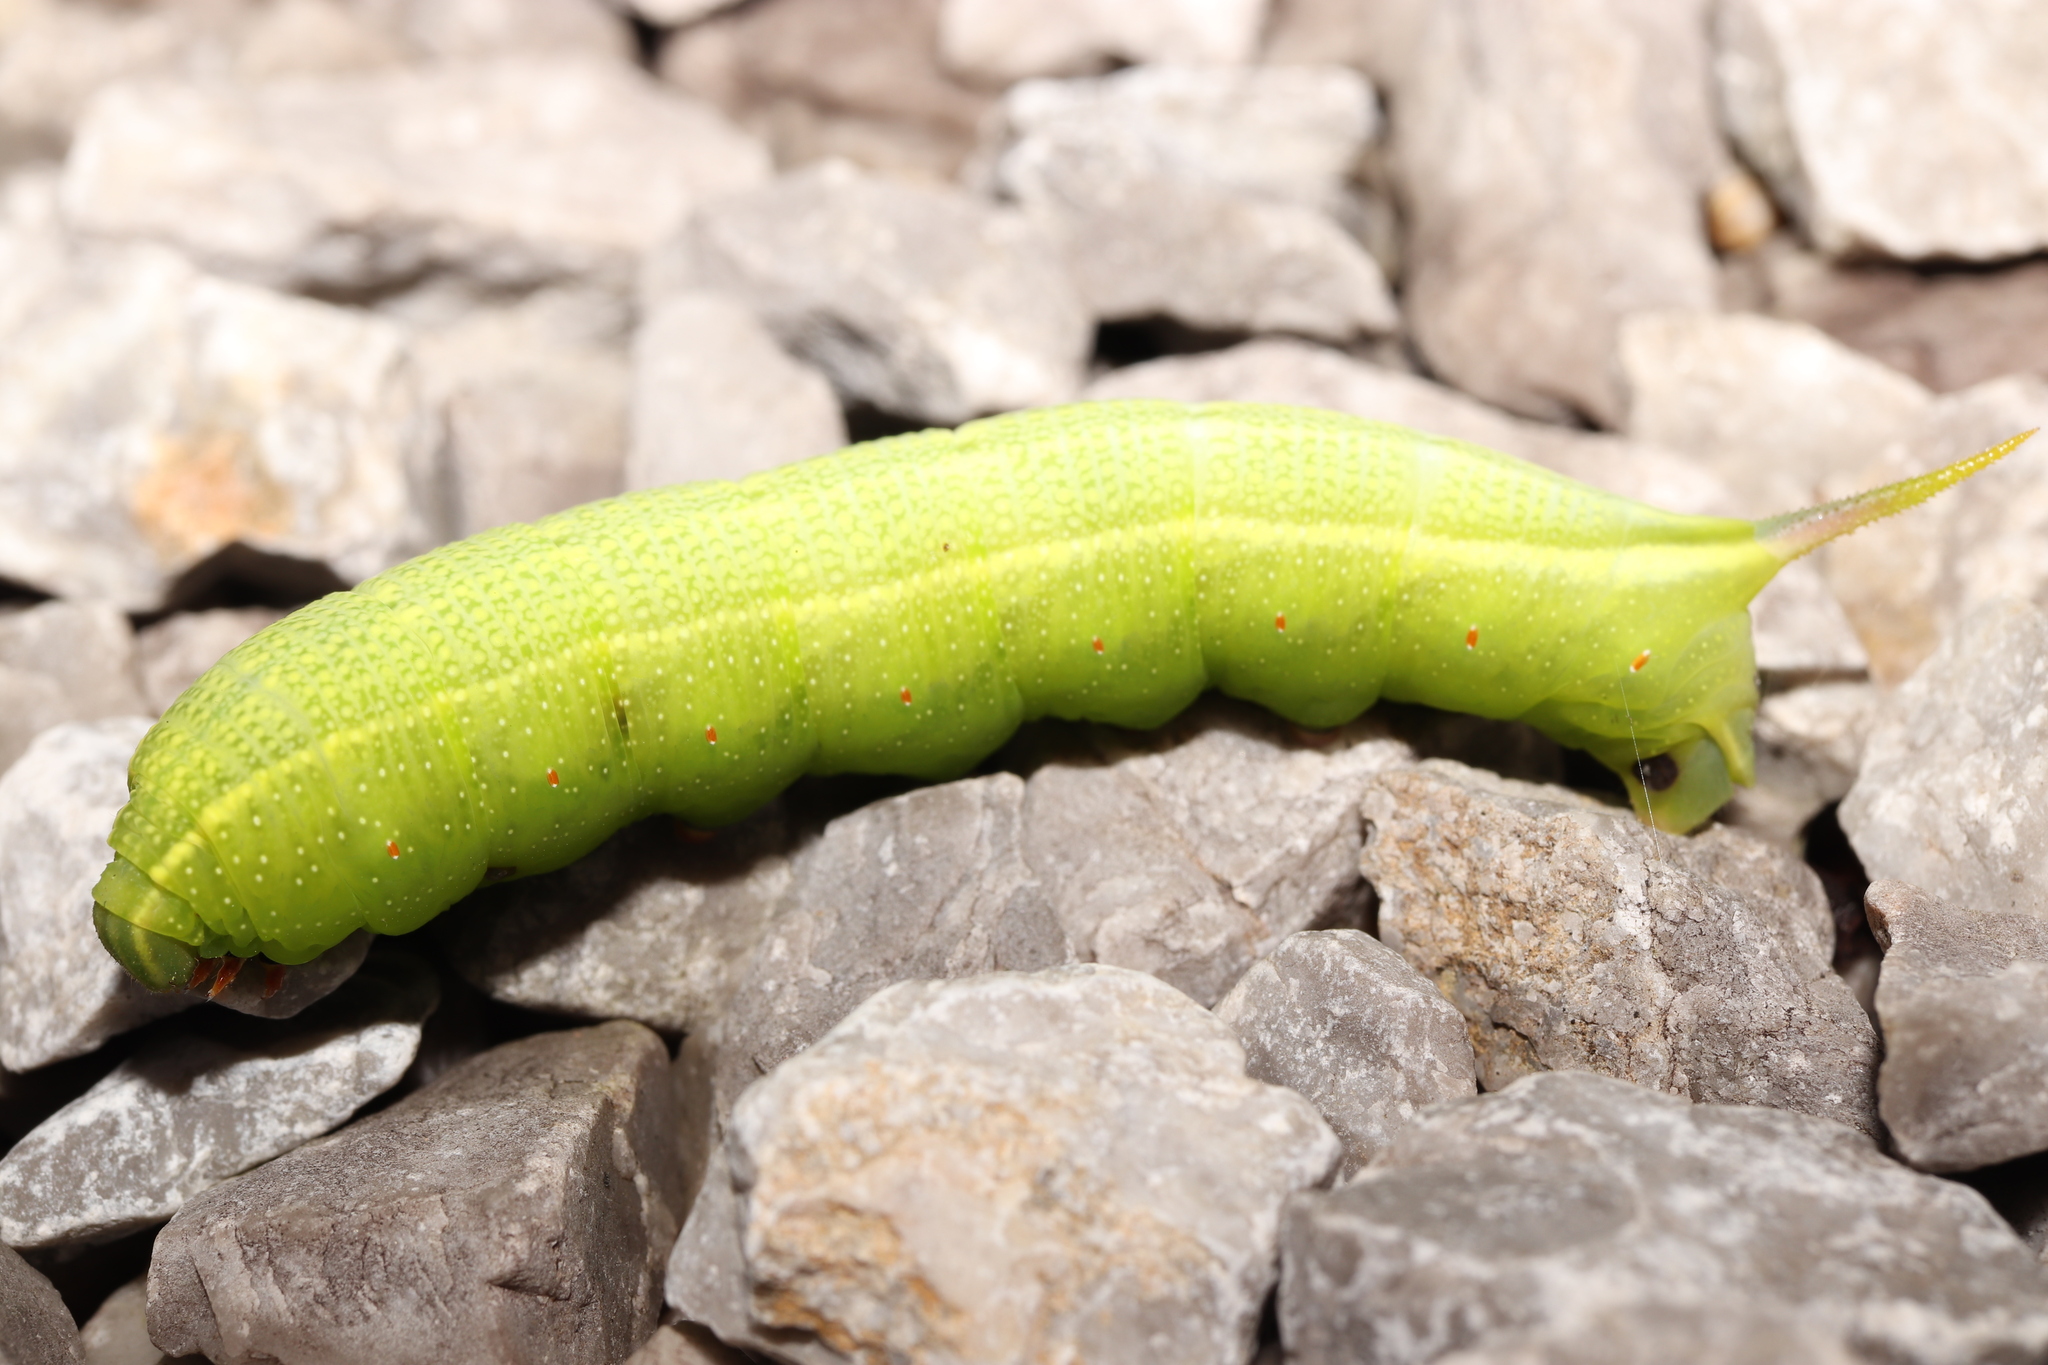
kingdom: Animalia
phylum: Arthropoda
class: Insecta
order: Lepidoptera
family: Sphingidae
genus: Macroglossum
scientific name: Macroglossum pyrrhosticta
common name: Hummingbird hawk moth
